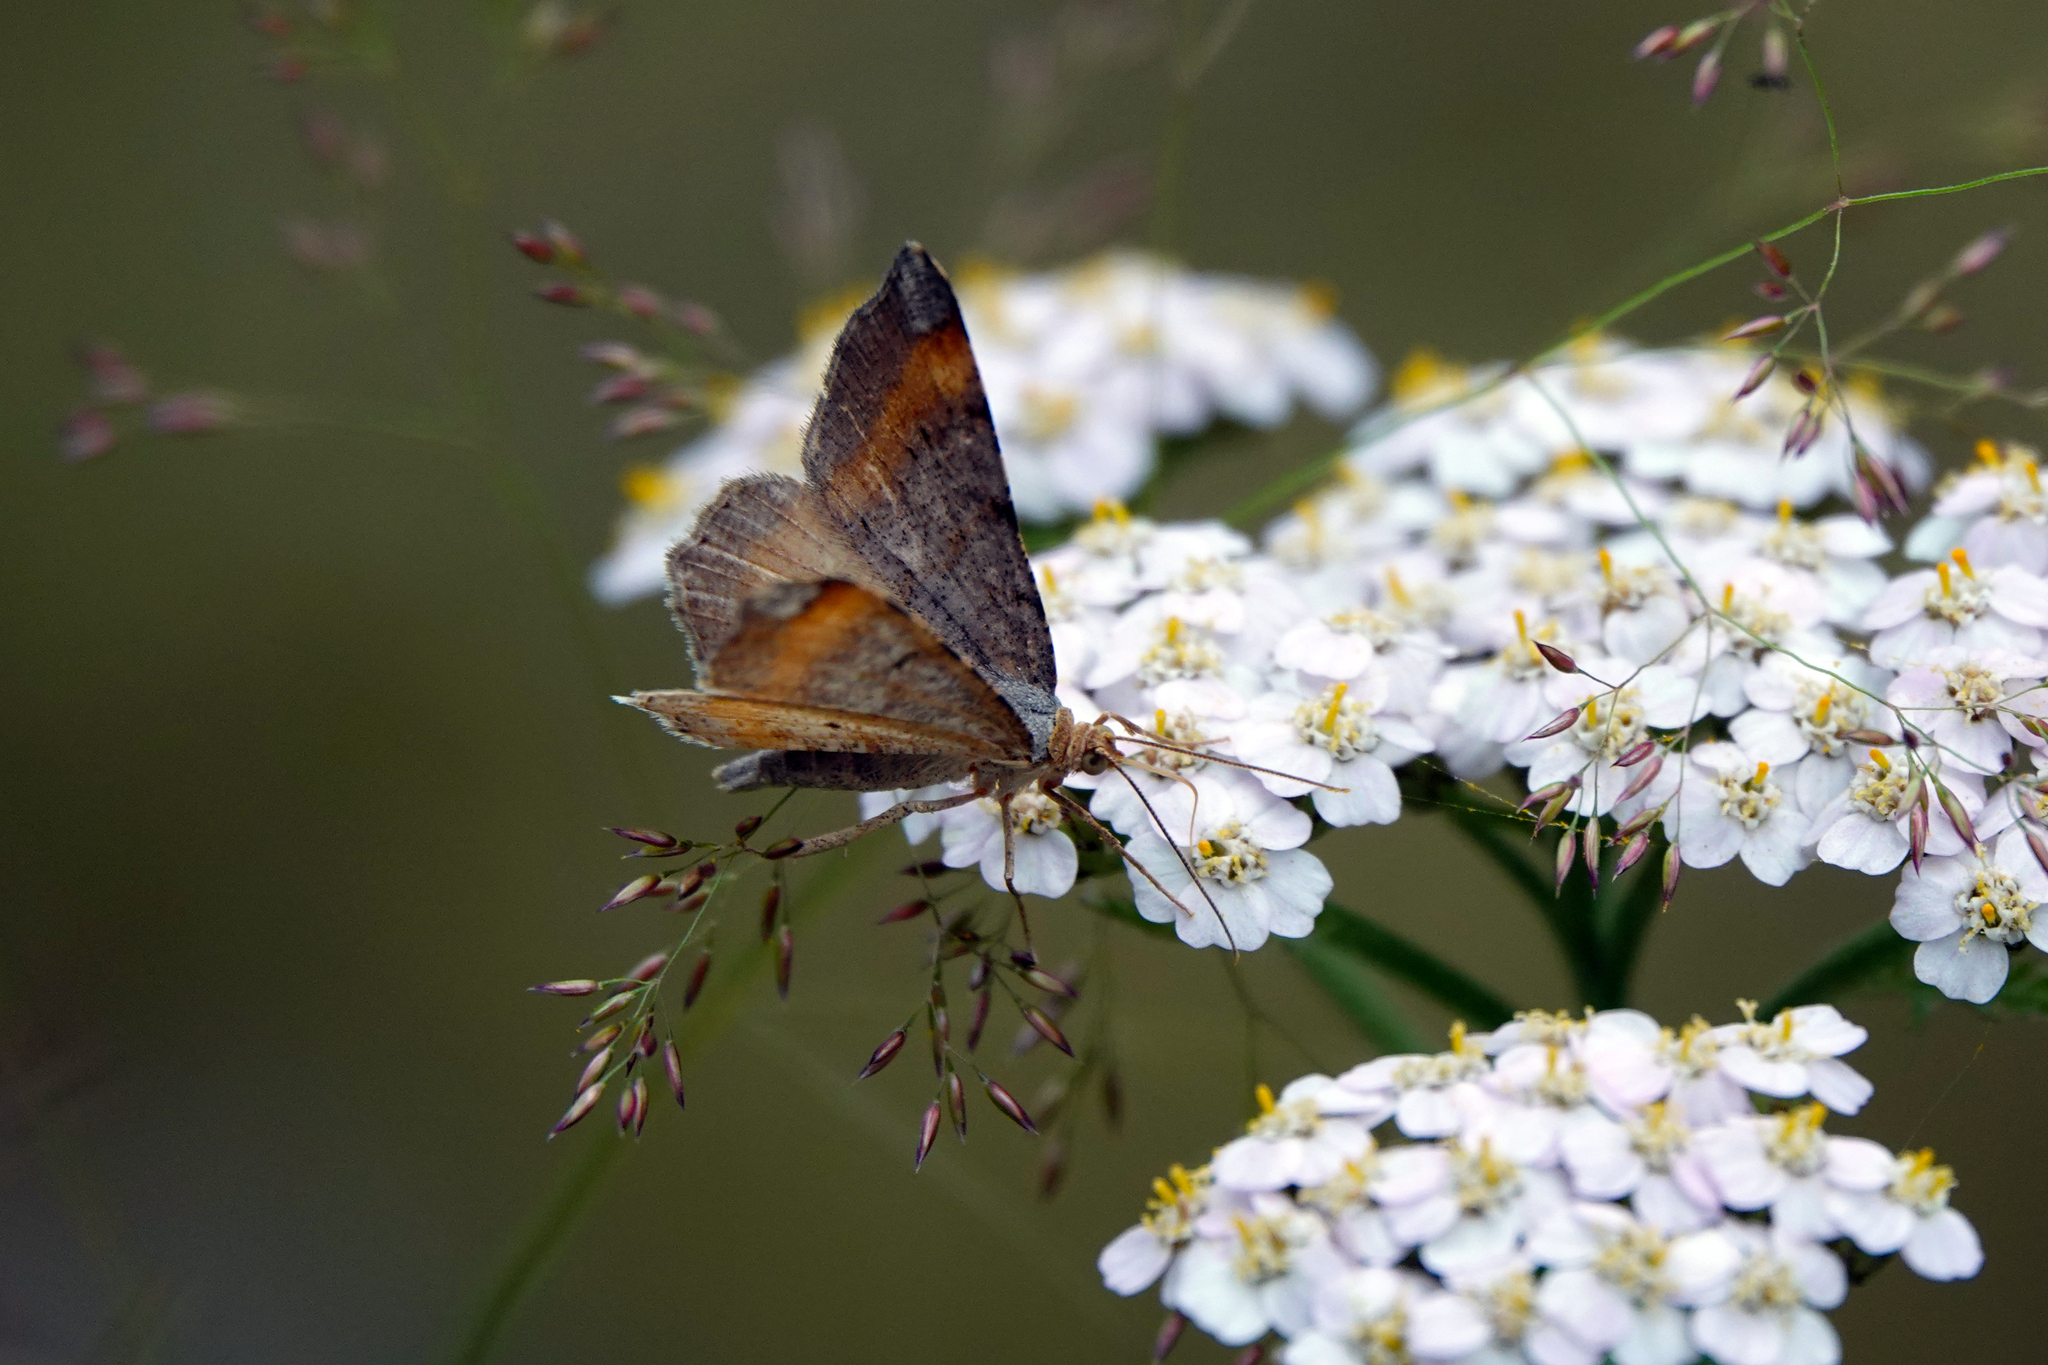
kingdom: Animalia
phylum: Arthropoda
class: Insecta
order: Lepidoptera
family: Geometridae
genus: Macaria
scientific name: Macaria liturata
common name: Tawny-barred angle
